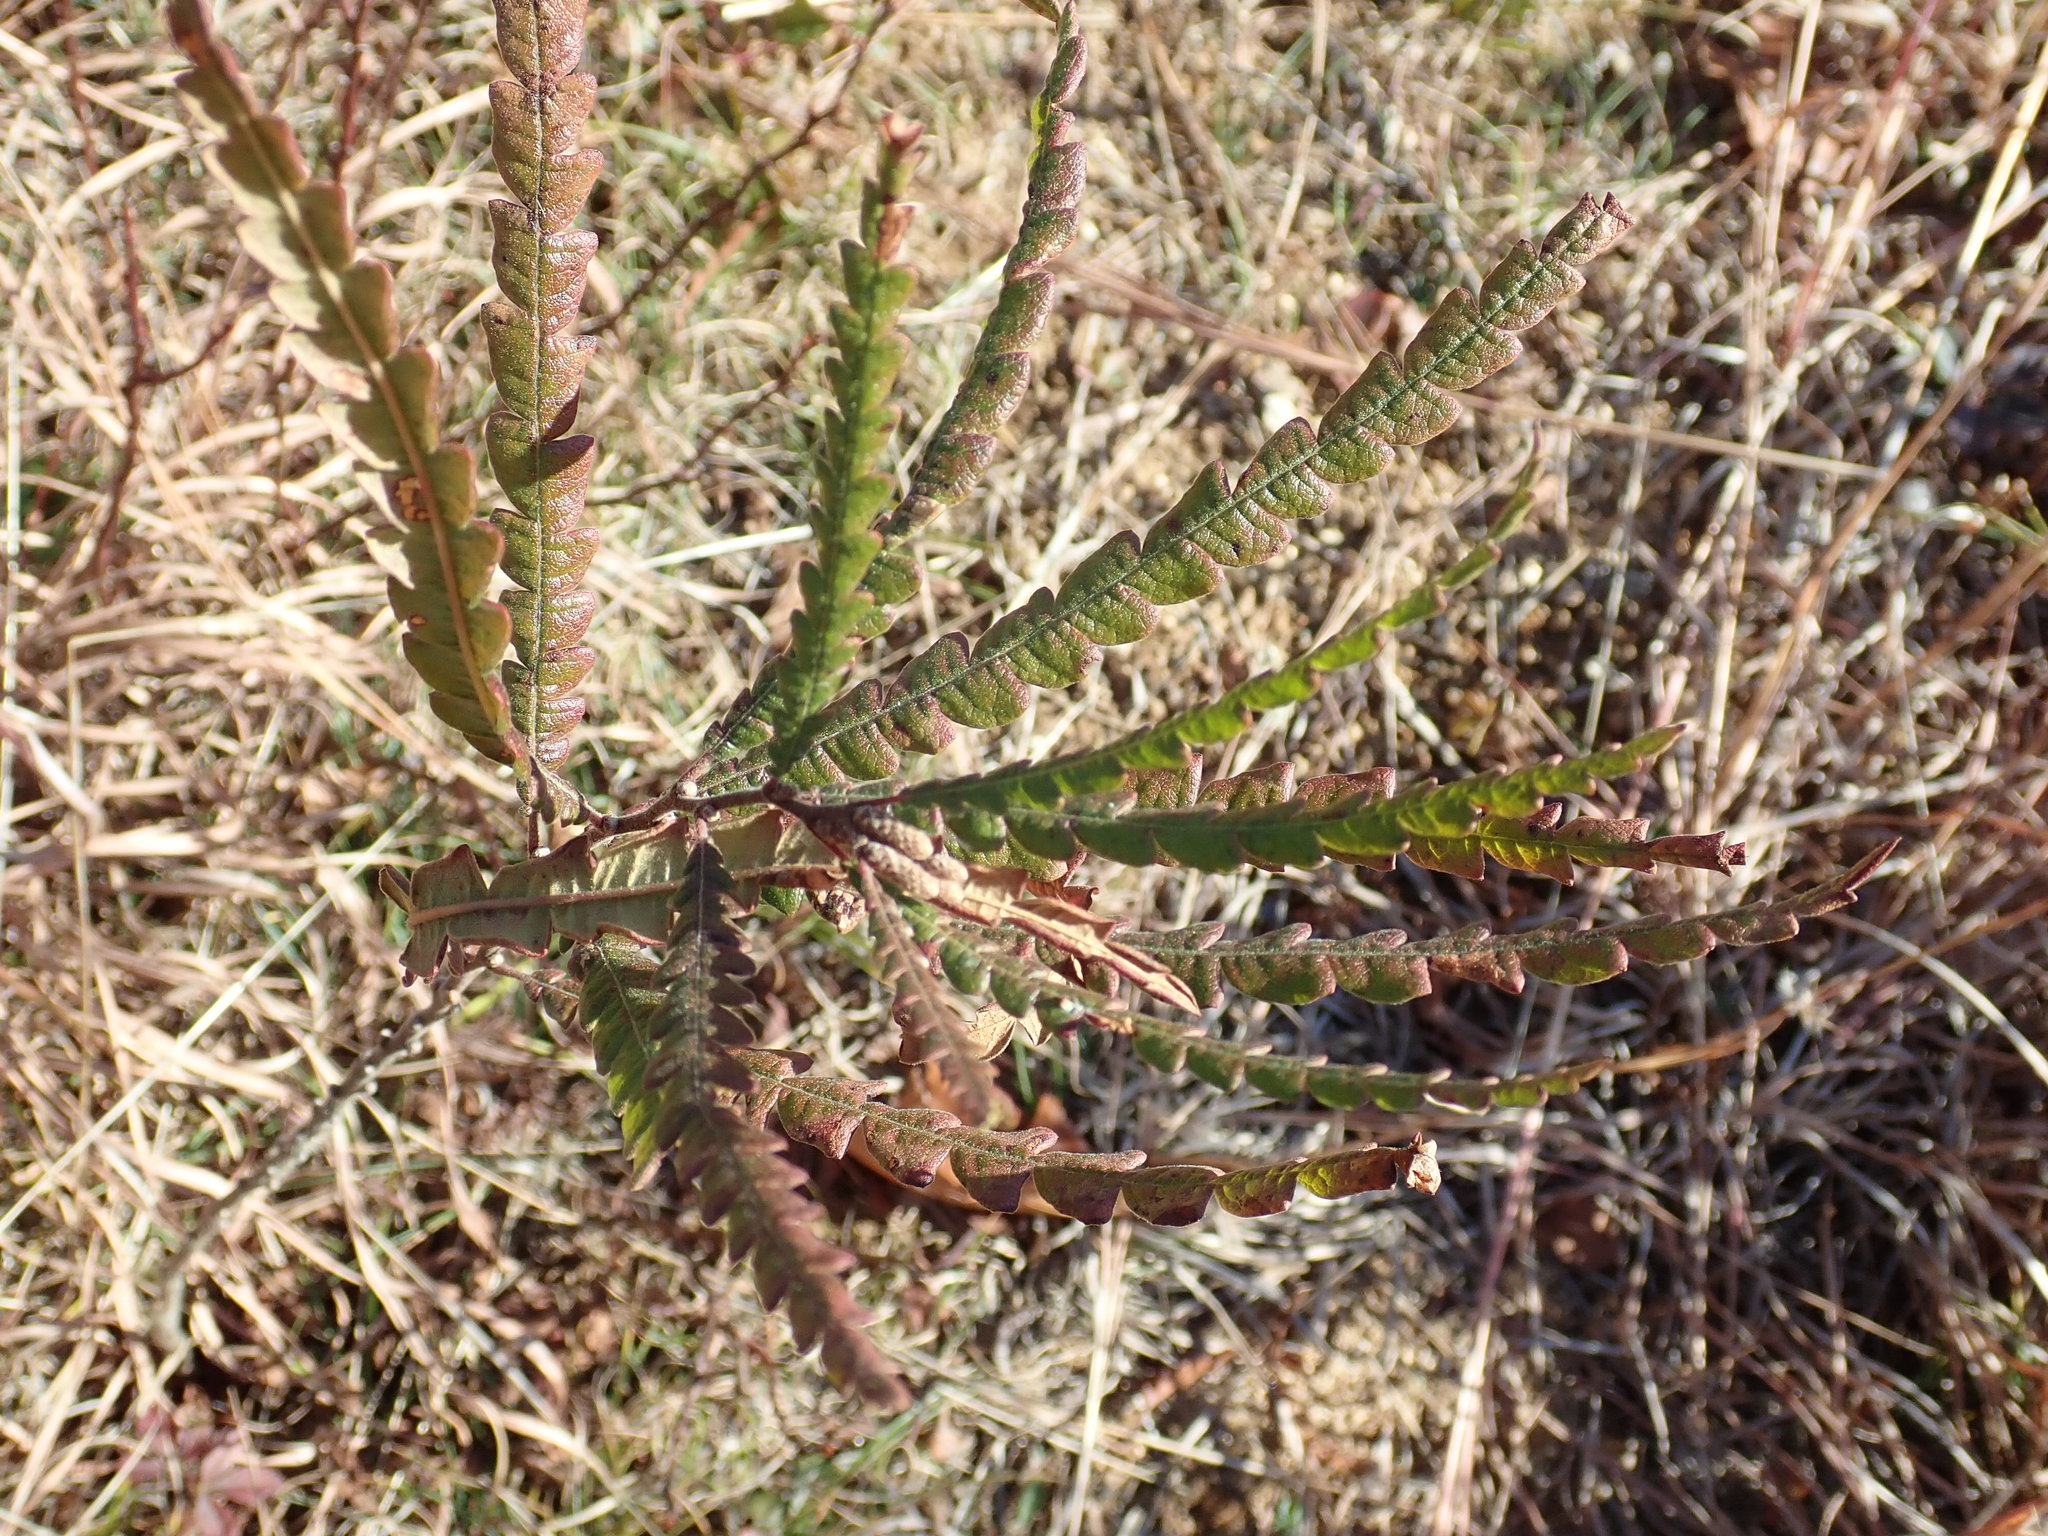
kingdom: Plantae
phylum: Tracheophyta
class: Magnoliopsida
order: Fagales
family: Myricaceae
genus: Comptonia
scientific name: Comptonia peregrina
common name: Sweet-fern
